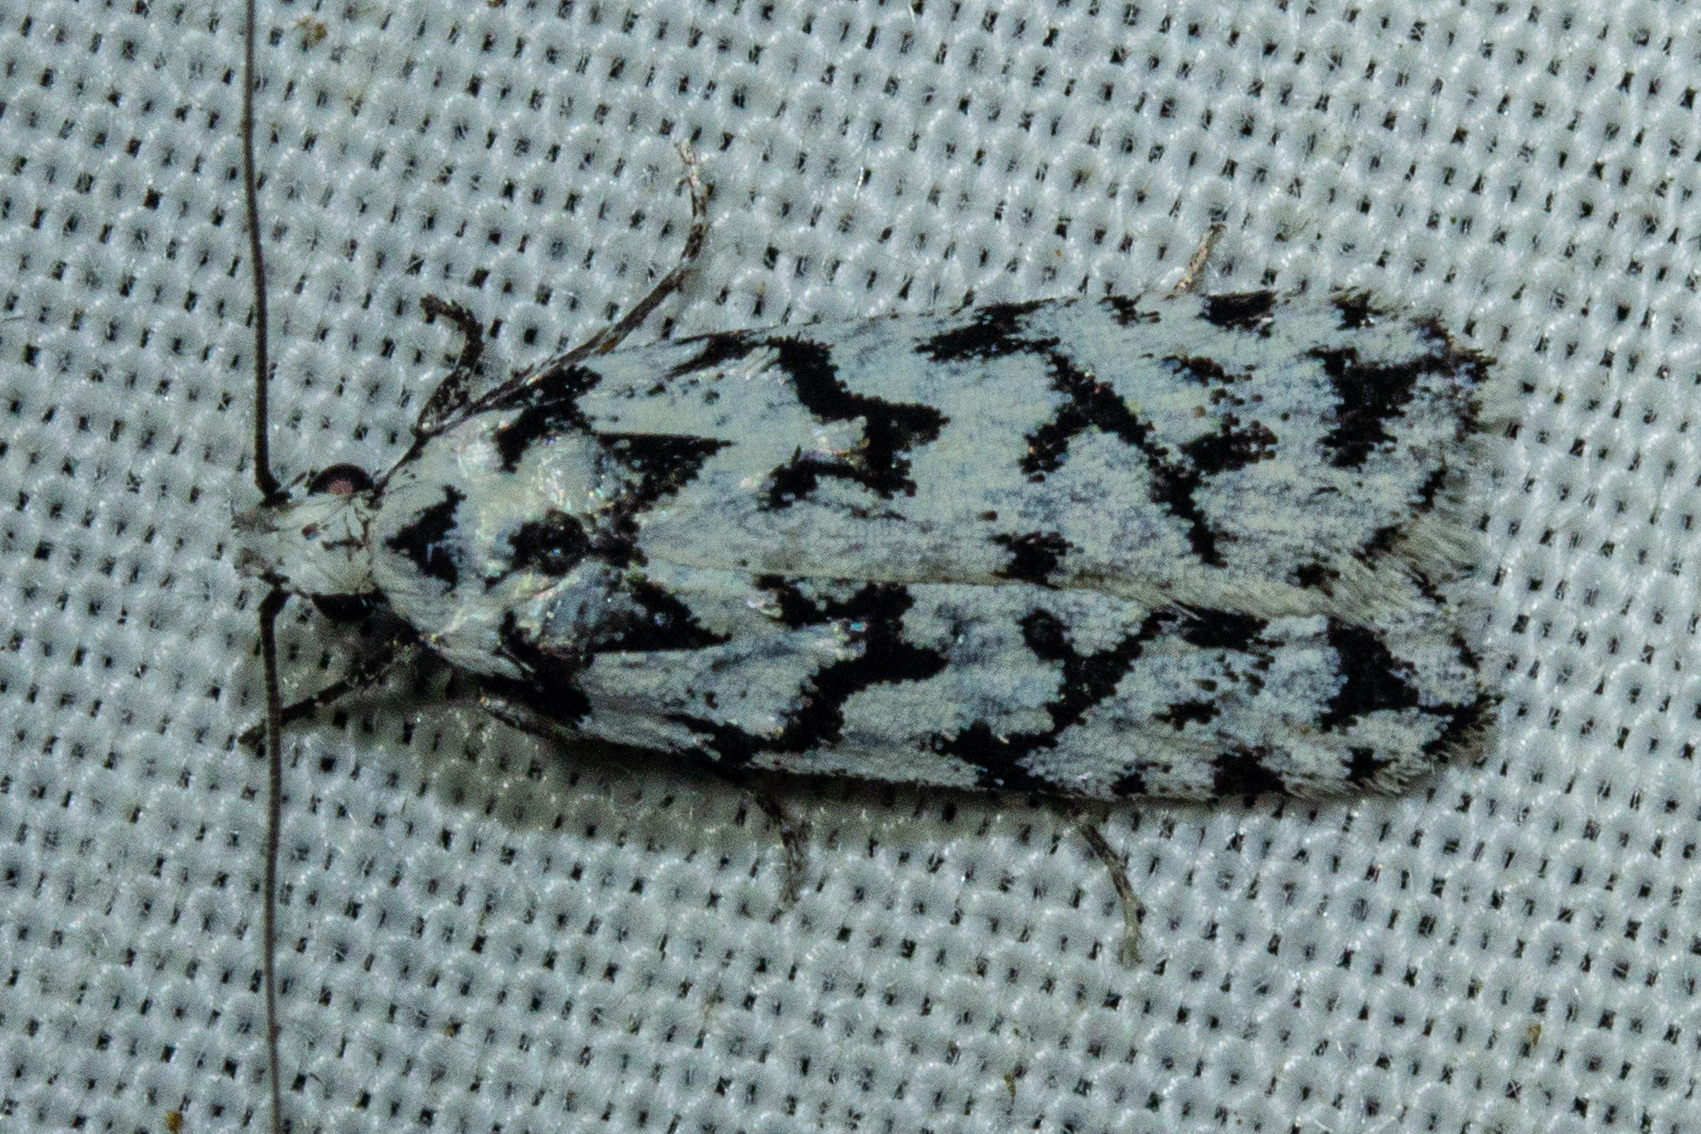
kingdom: Animalia
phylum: Arthropoda
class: Insecta
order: Lepidoptera
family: Oecophoridae
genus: Izatha
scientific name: Izatha katadiktya
